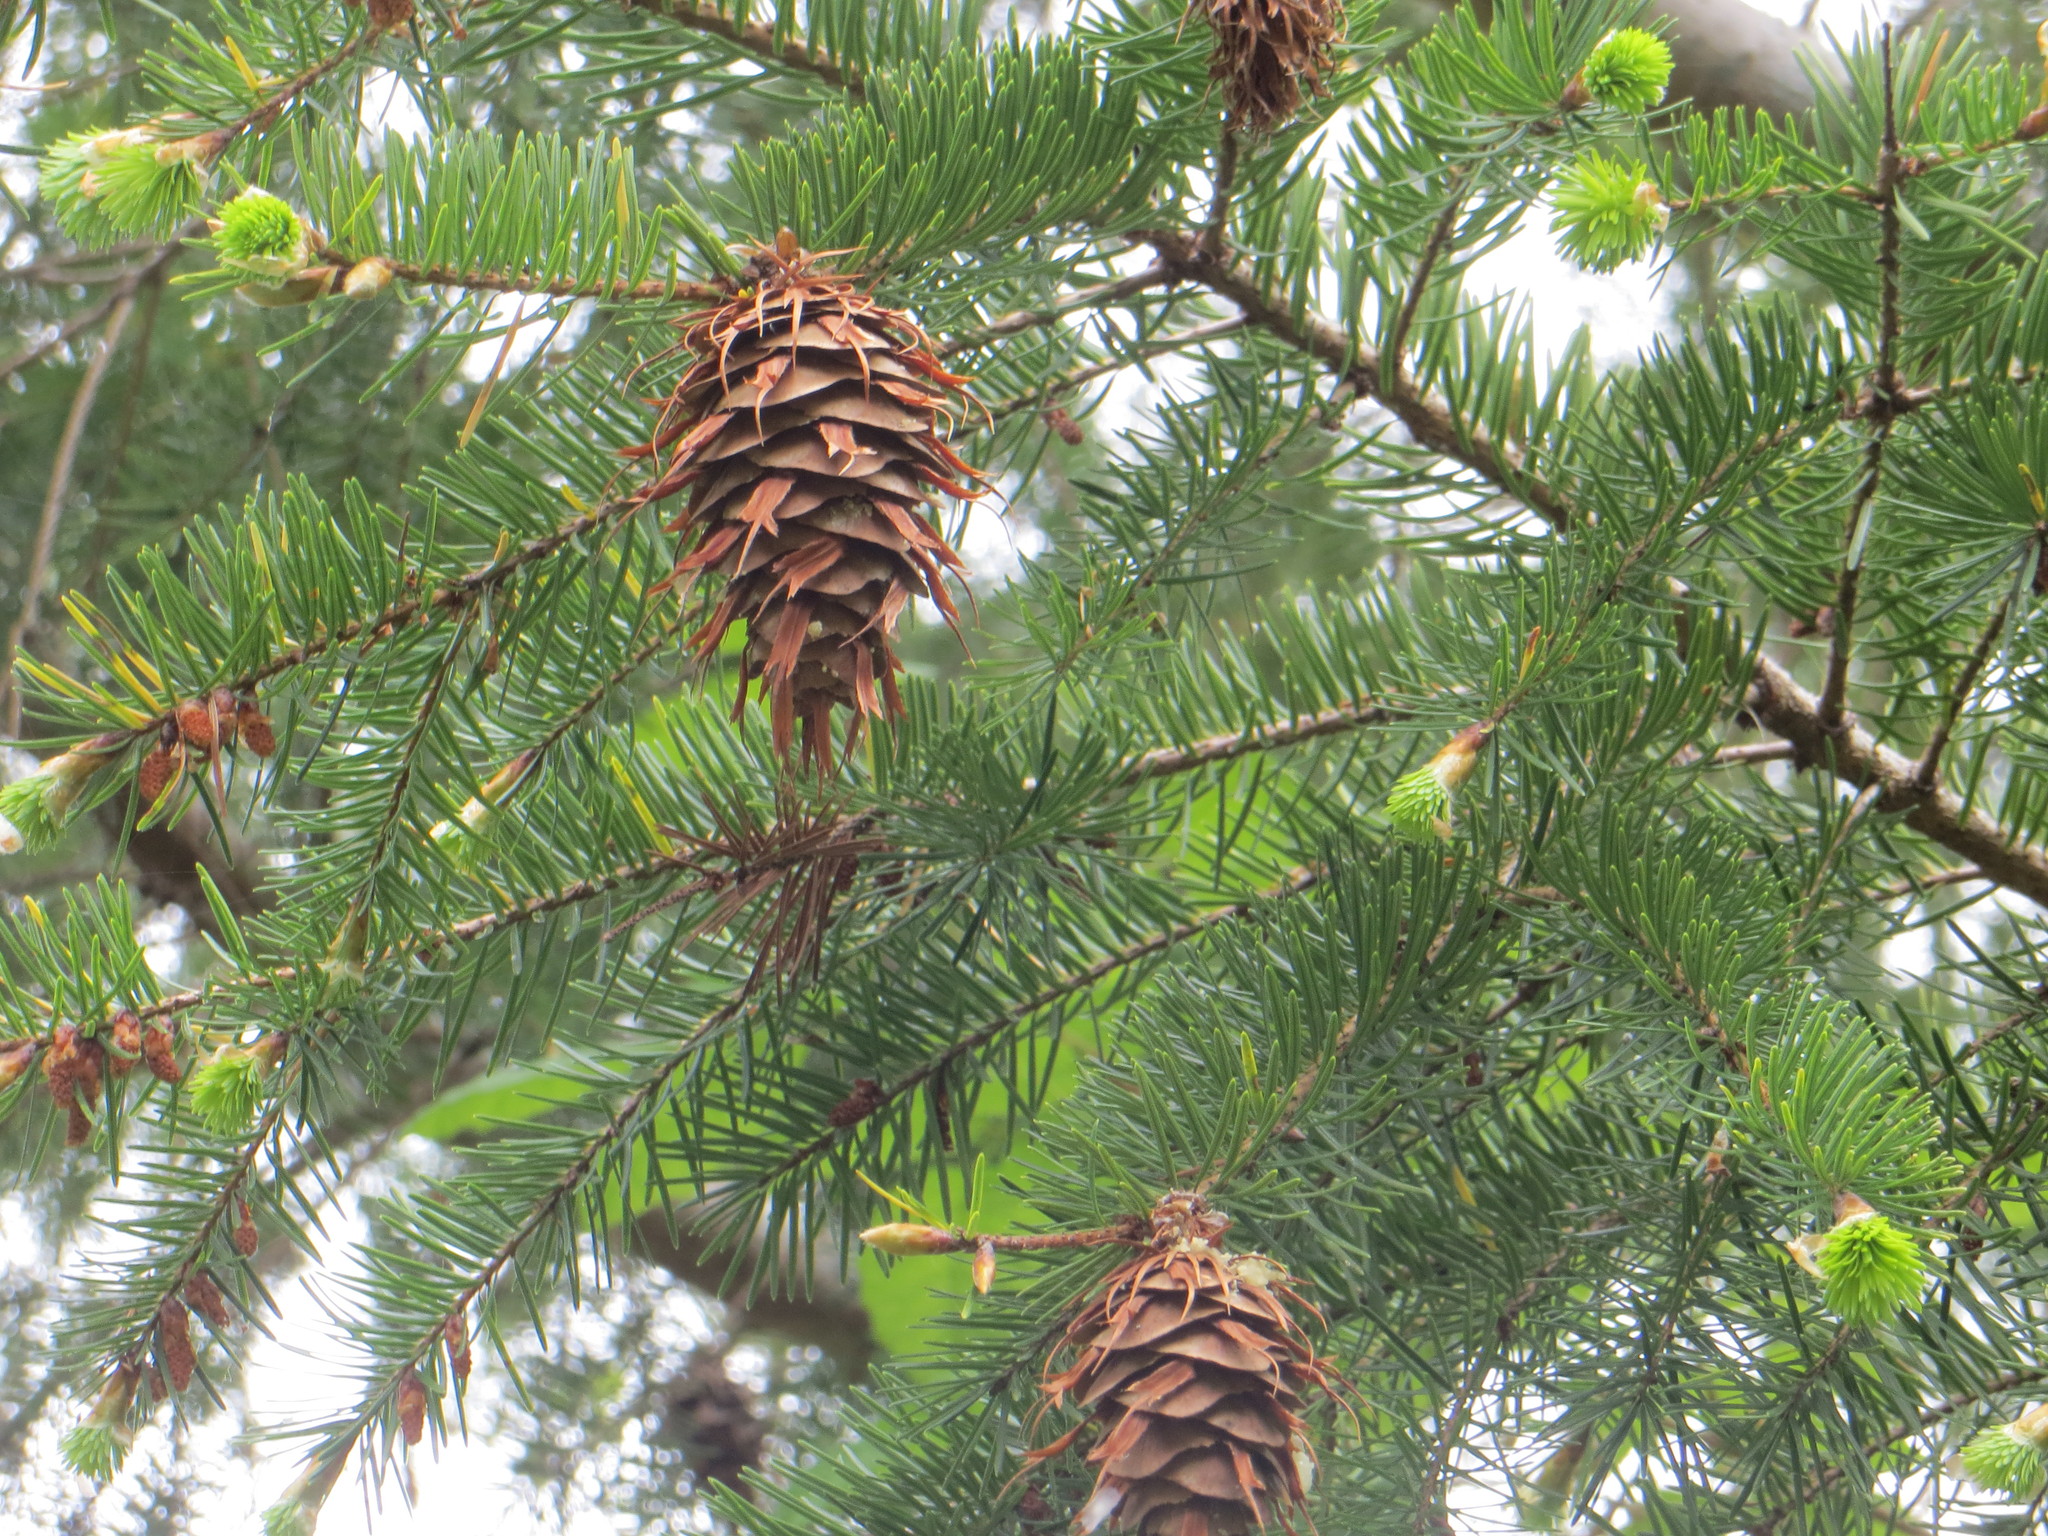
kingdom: Plantae
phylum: Tracheophyta
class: Pinopsida
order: Pinales
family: Pinaceae
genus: Pseudotsuga
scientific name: Pseudotsuga menziesii
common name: Douglas fir
